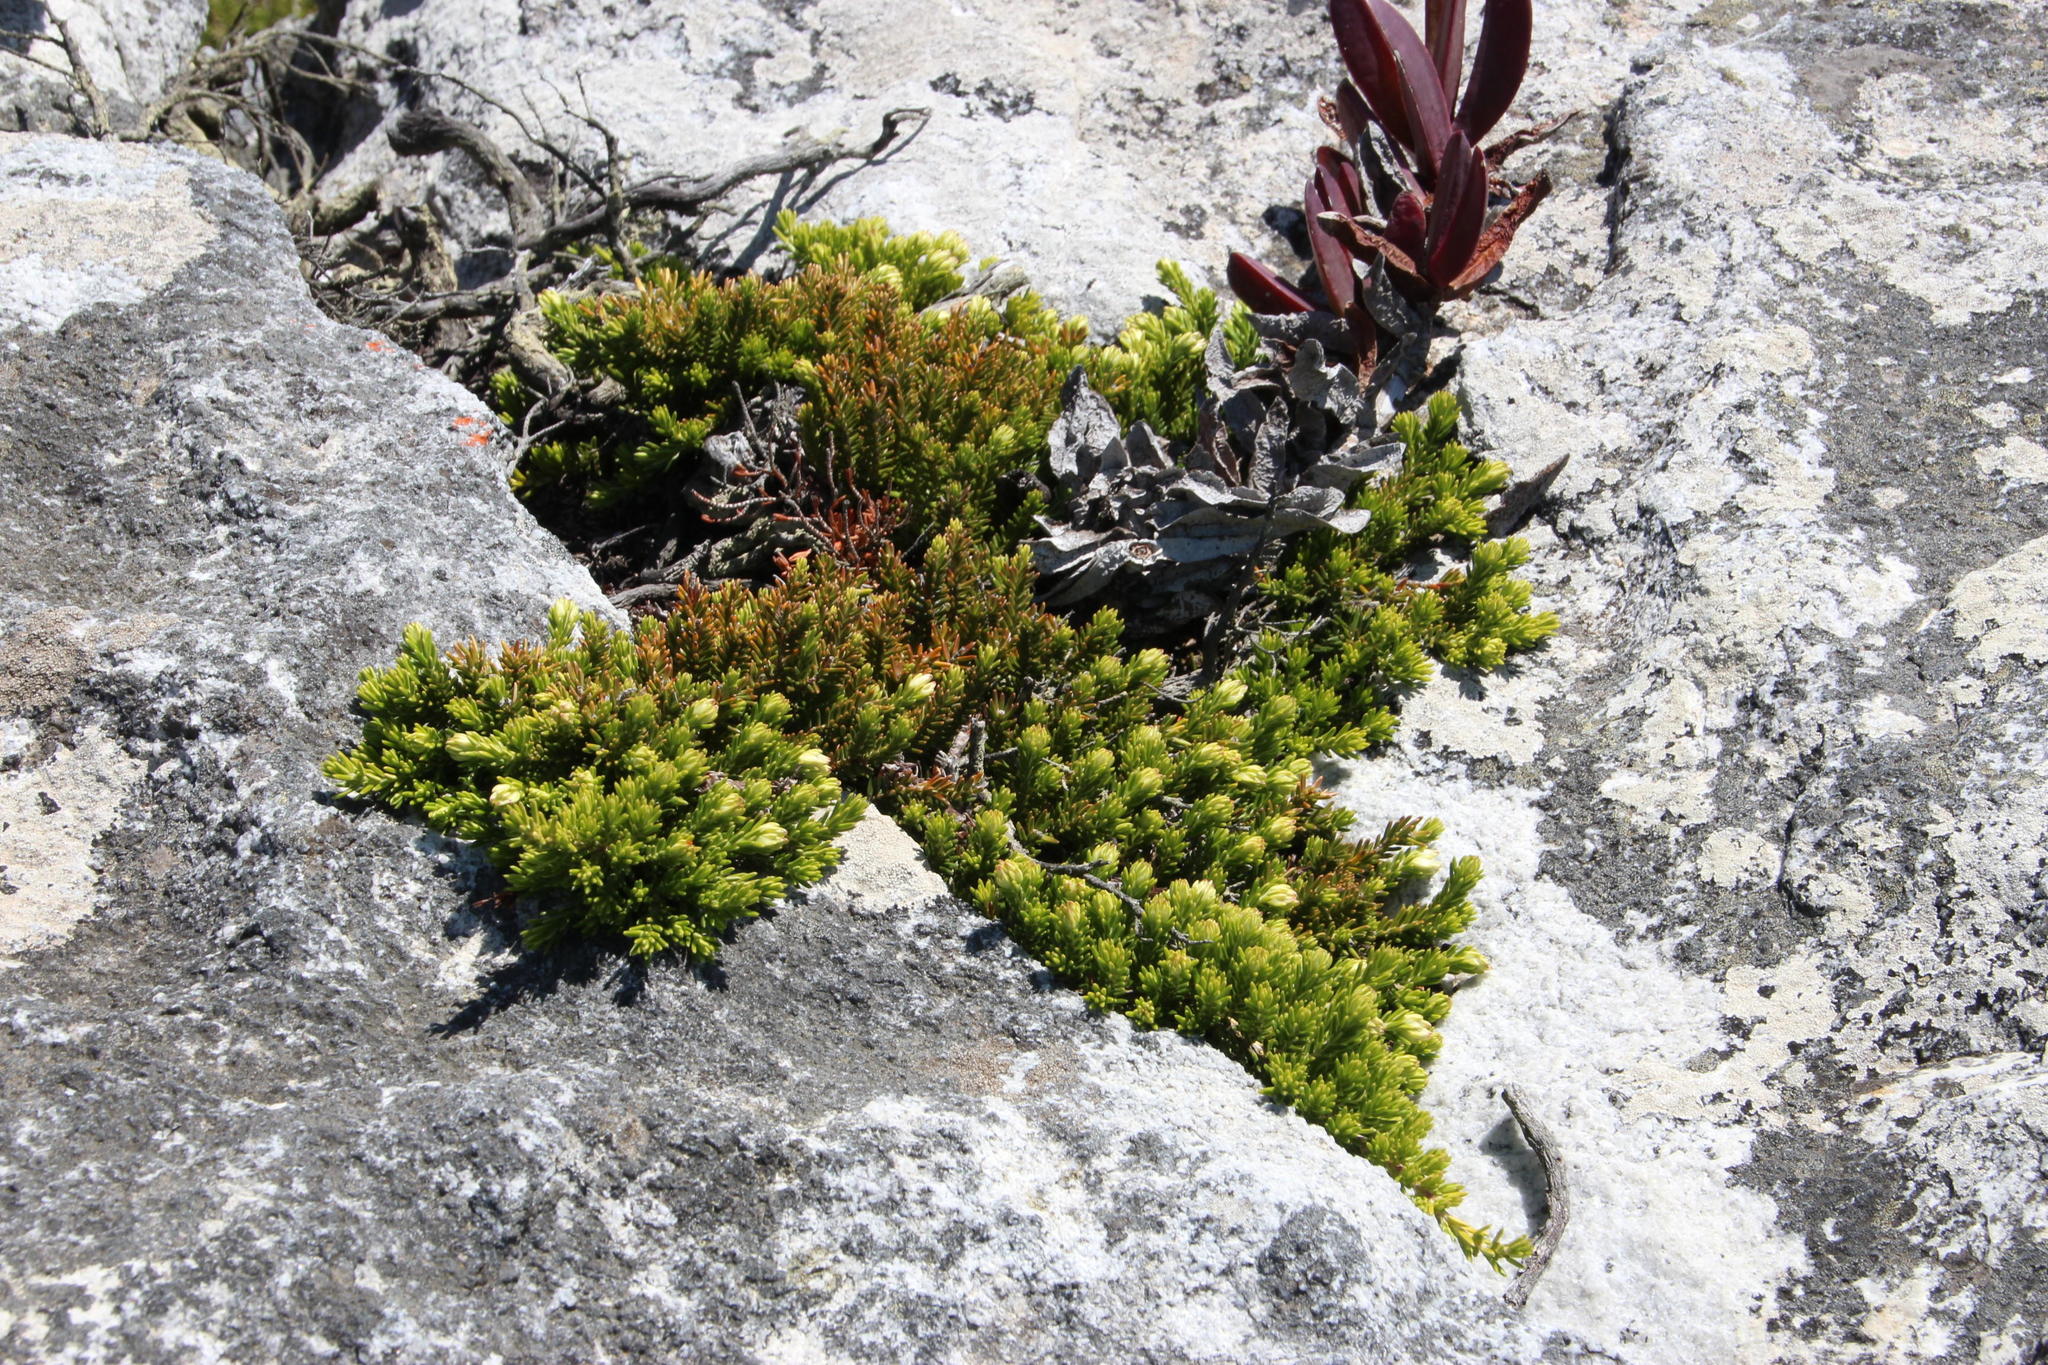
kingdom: Plantae
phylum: Tracheophyta
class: Magnoliopsida
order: Ericales
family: Ericaceae
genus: Erica
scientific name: Erica banksia
